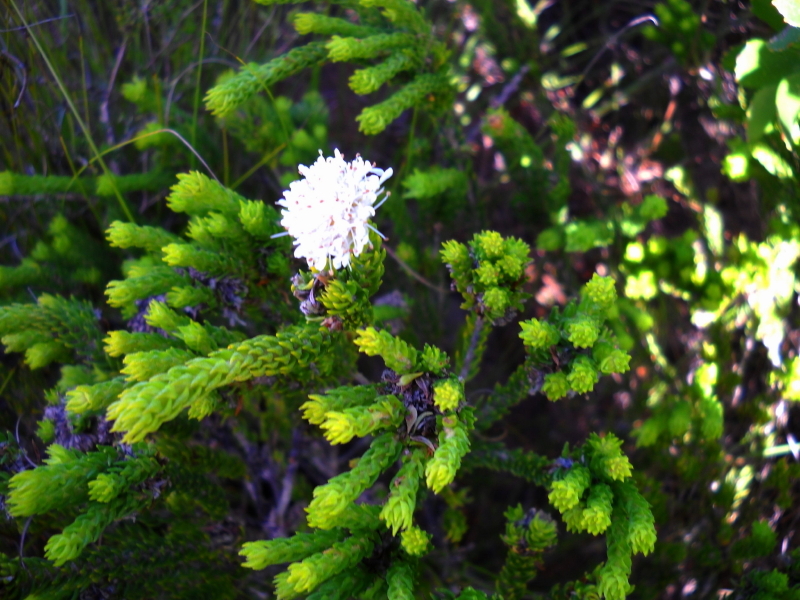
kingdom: Plantae
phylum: Tracheophyta
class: Magnoliopsida
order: Sapindales
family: Rutaceae
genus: Agathosma
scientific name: Agathosma eriantha
